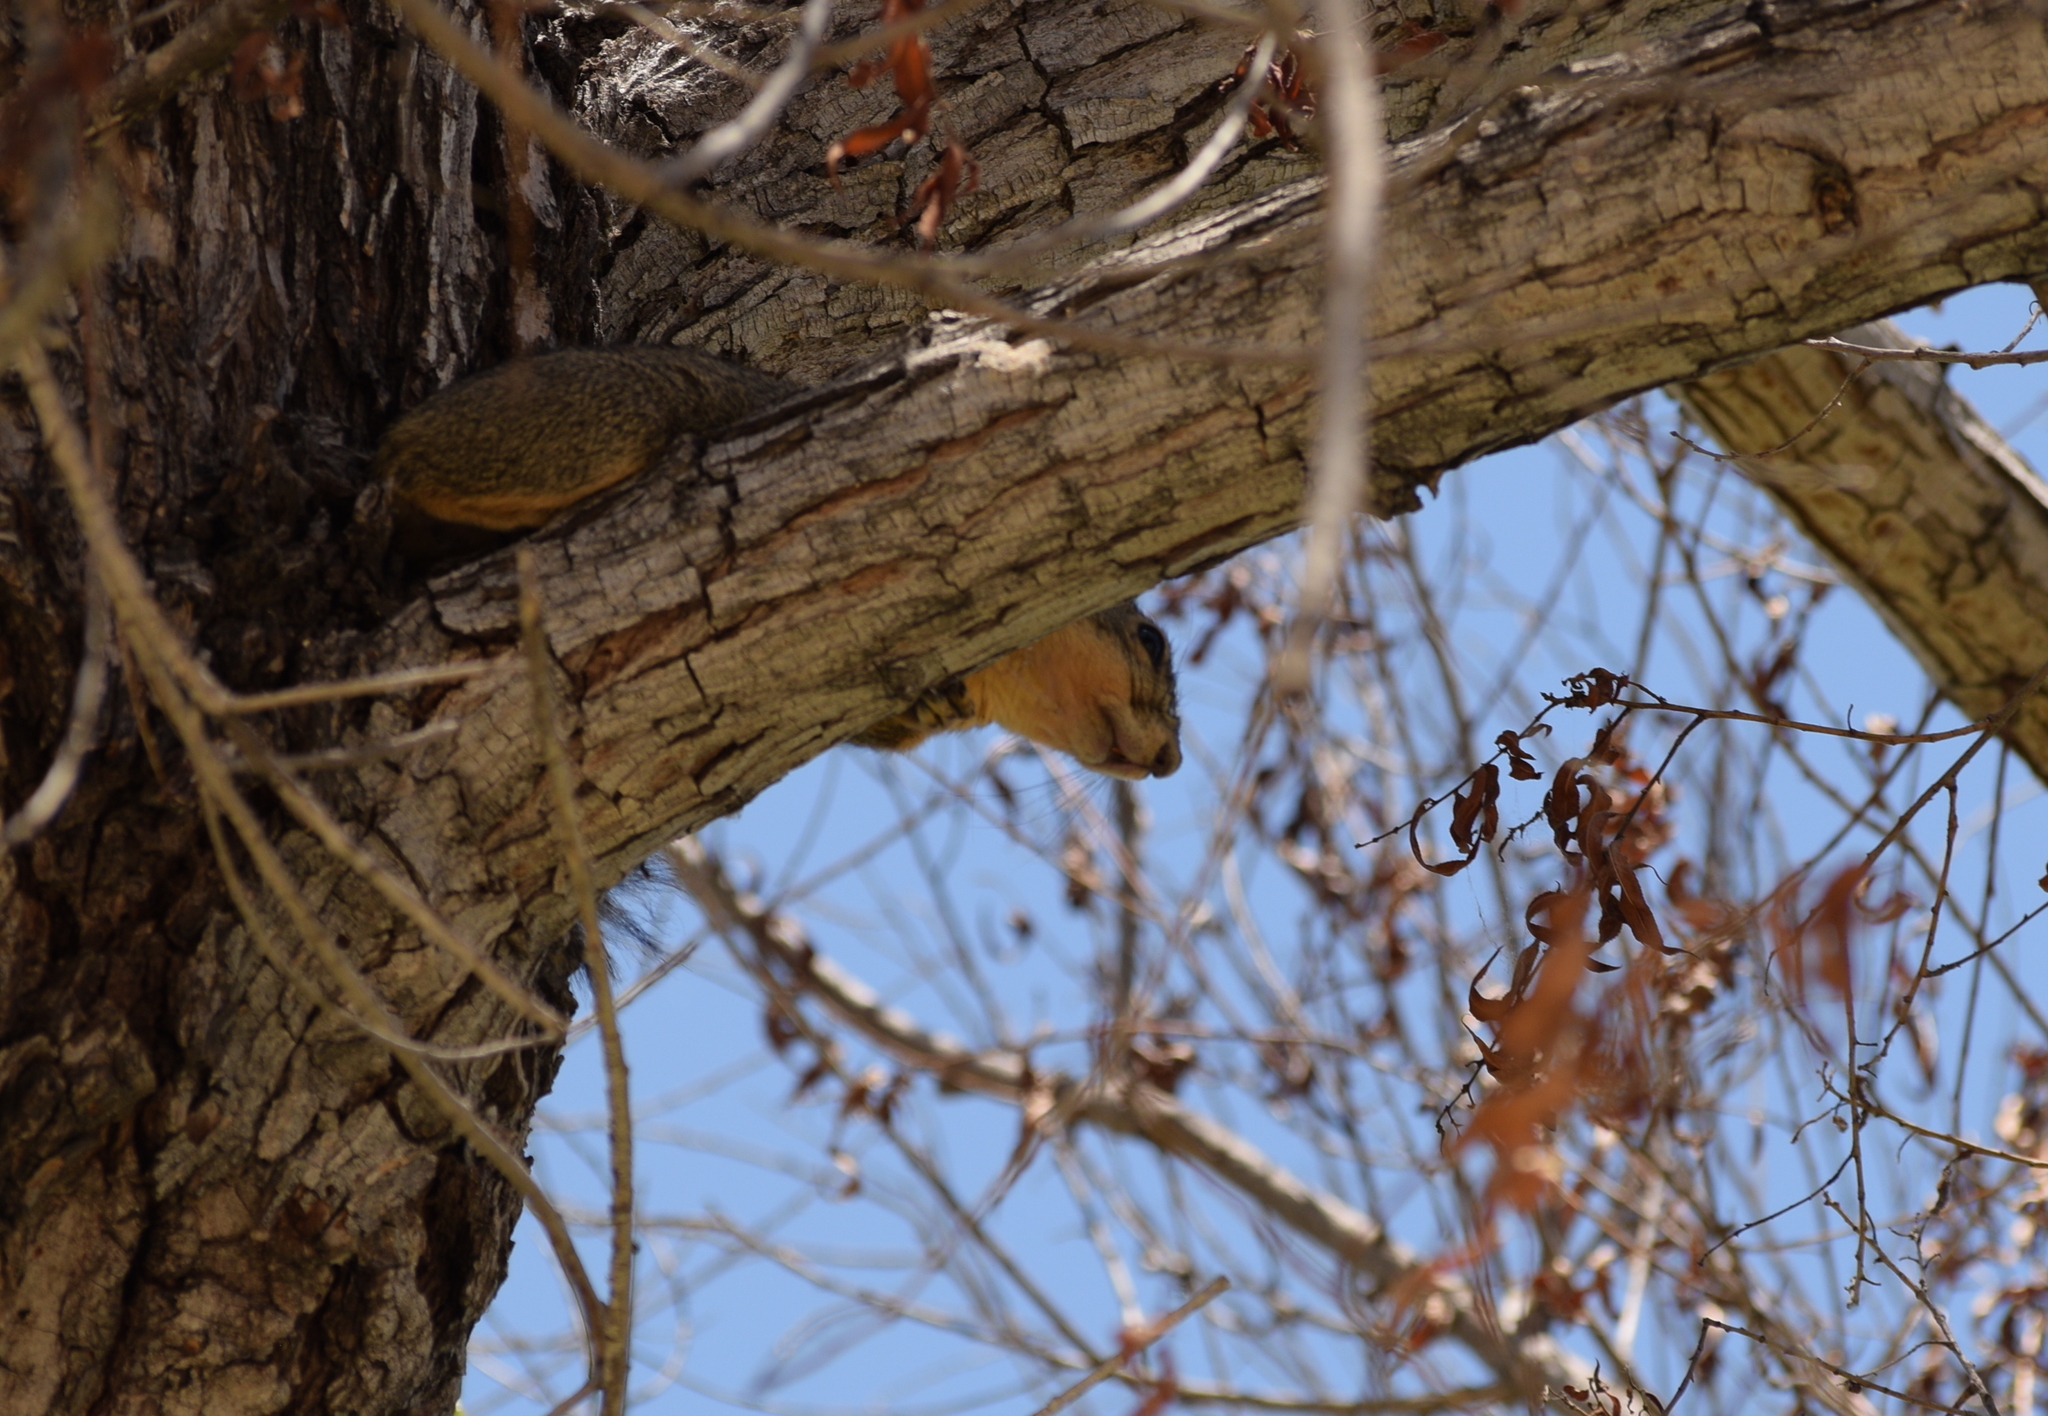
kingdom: Animalia
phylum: Chordata
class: Mammalia
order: Rodentia
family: Sciuridae
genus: Sciurus
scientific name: Sciurus niger
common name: Fox squirrel
